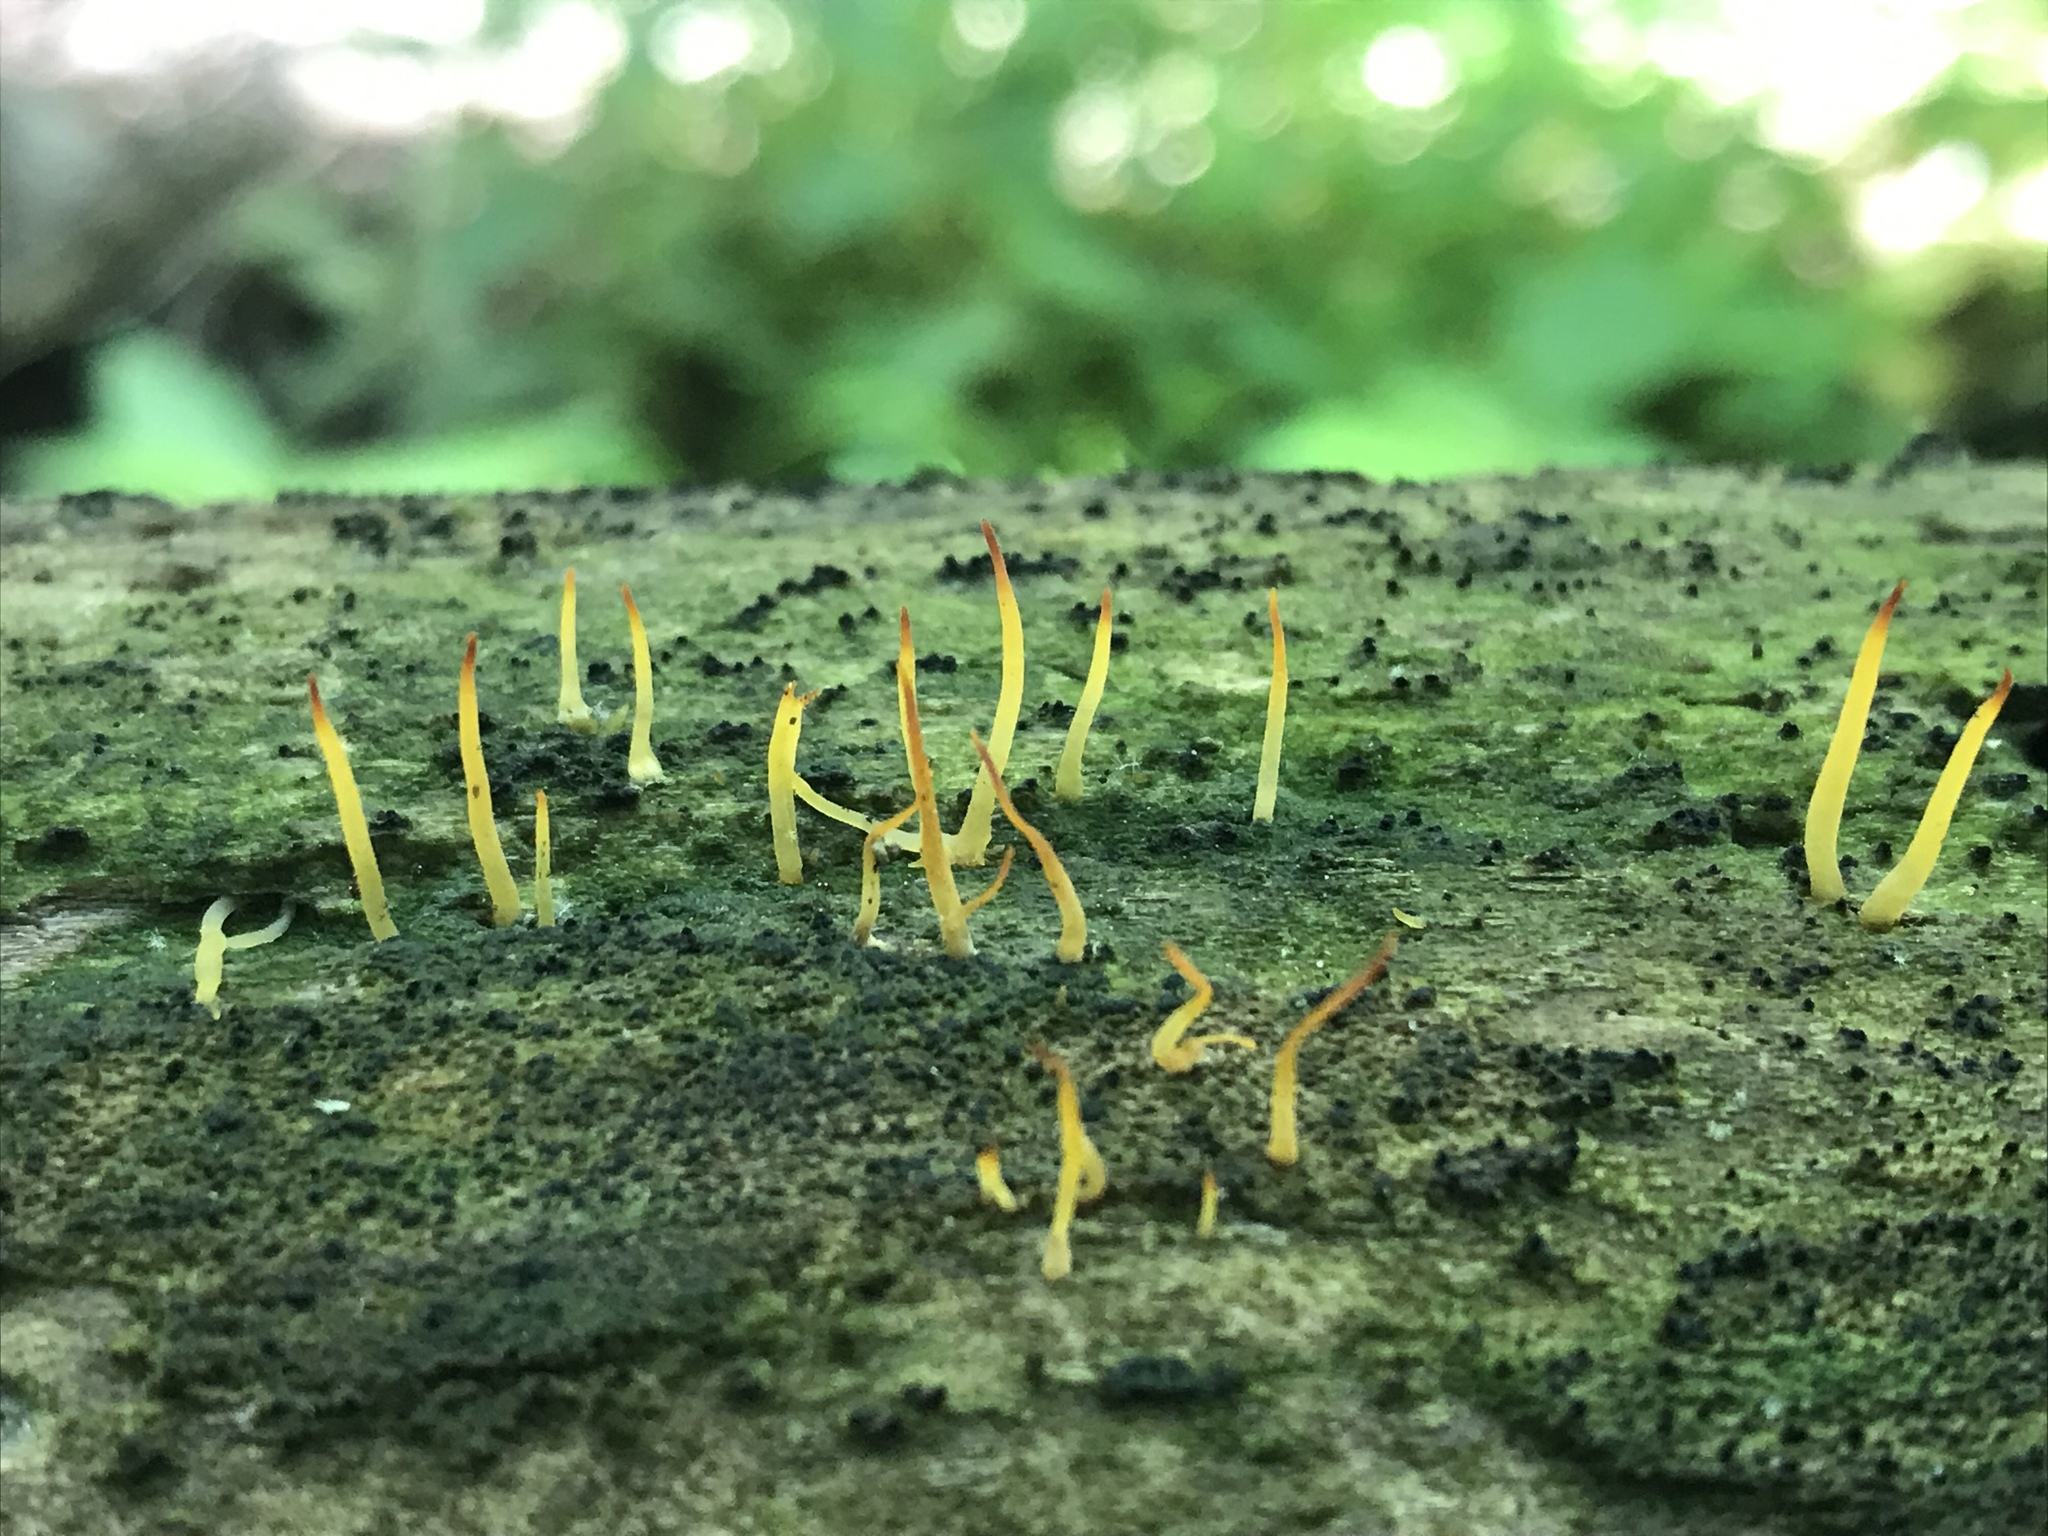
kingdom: Fungi
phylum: Basidiomycota
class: Dacrymycetes
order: Dacrymycetales
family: Dacrymycetaceae
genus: Calocera
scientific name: Calocera cornea
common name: Small stagshorn
